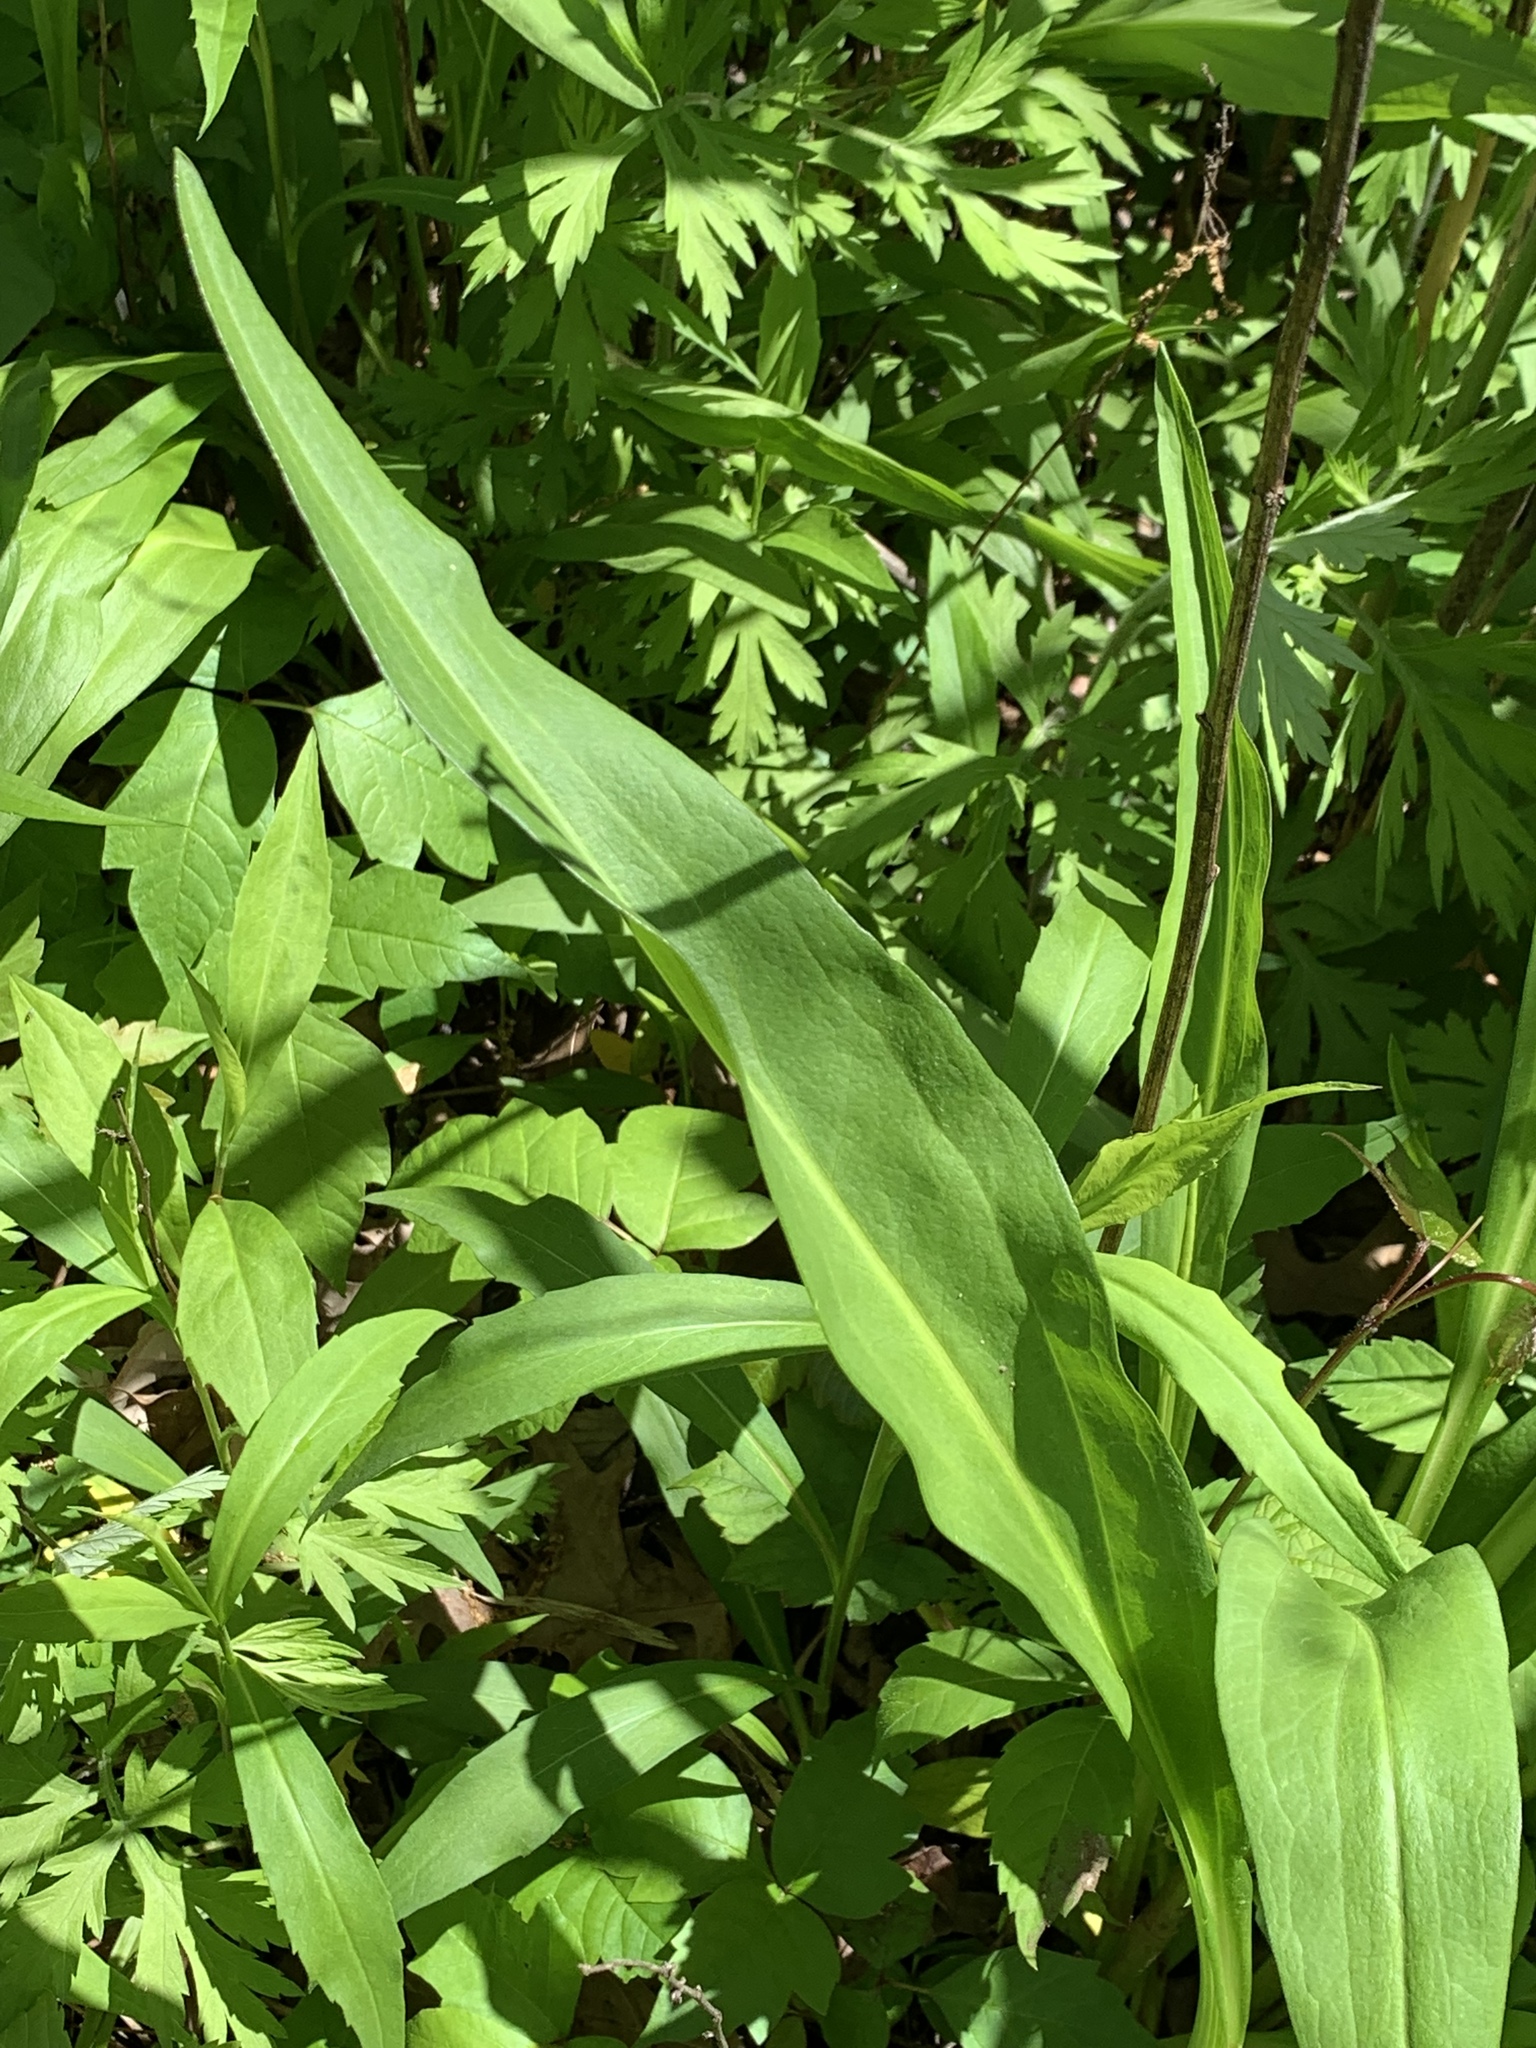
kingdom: Plantae
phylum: Tracheophyta
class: Magnoliopsida
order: Asterales
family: Asteraceae
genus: Solidago
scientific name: Solidago sempervirens
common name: Salt-marsh goldenrod
